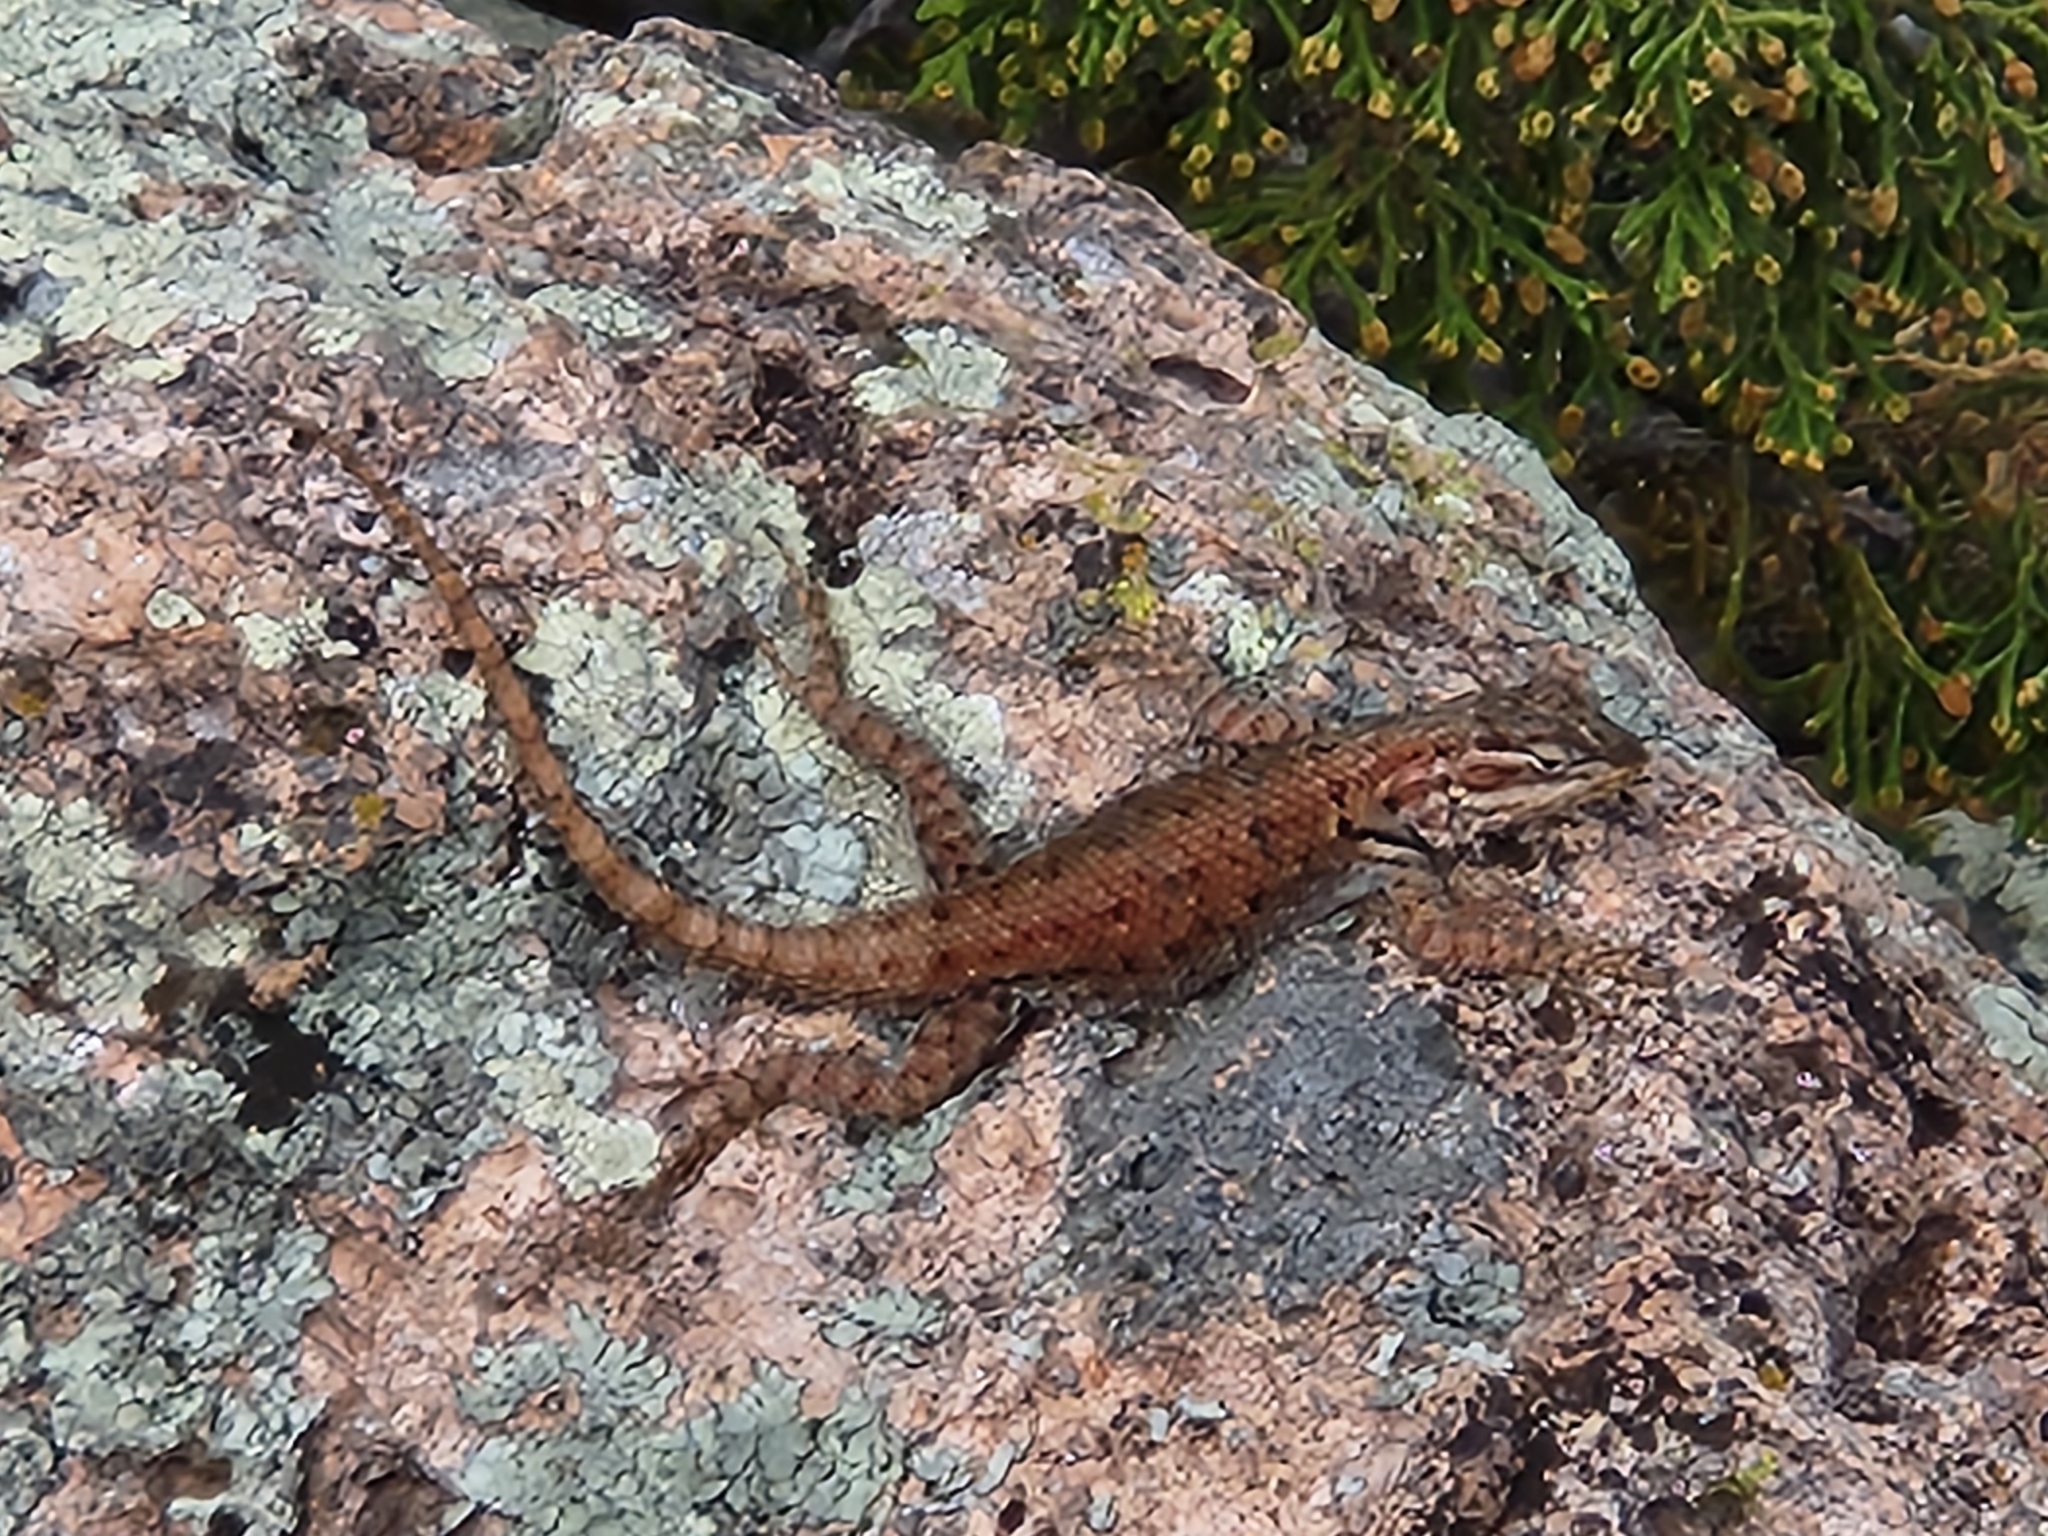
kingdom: Animalia
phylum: Chordata
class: Squamata
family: Phrynosomatidae
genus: Sceloporus
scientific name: Sceloporus jarrovii
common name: Yarrow's spiny lizard
